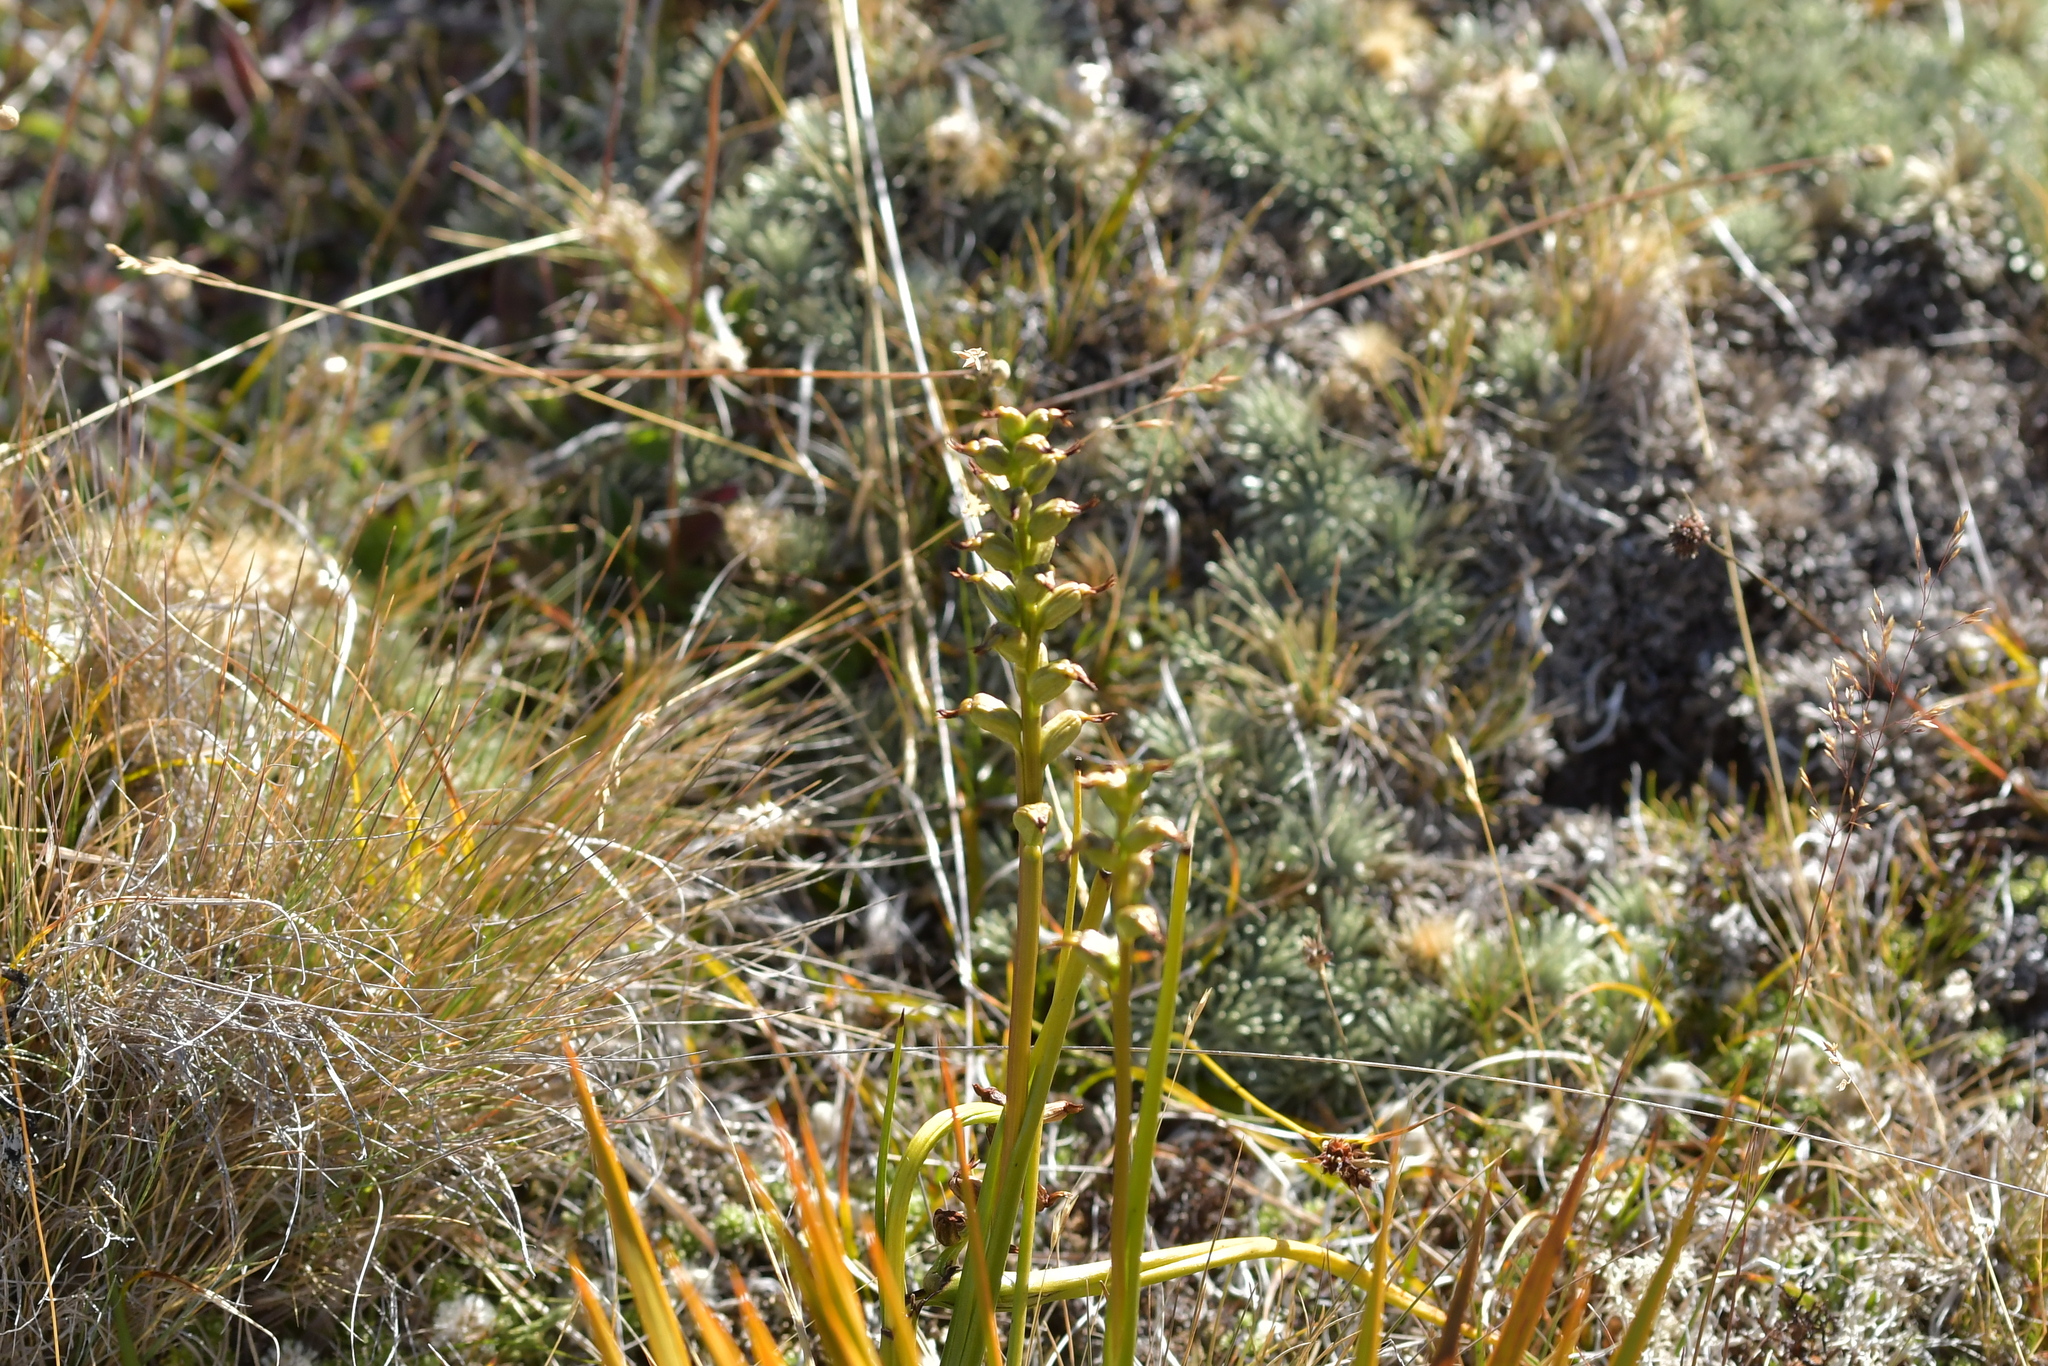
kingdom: Plantae
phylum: Tracheophyta
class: Liliopsida
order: Asparagales
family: Orchidaceae
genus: Prasophyllum
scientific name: Prasophyllum colensoi
